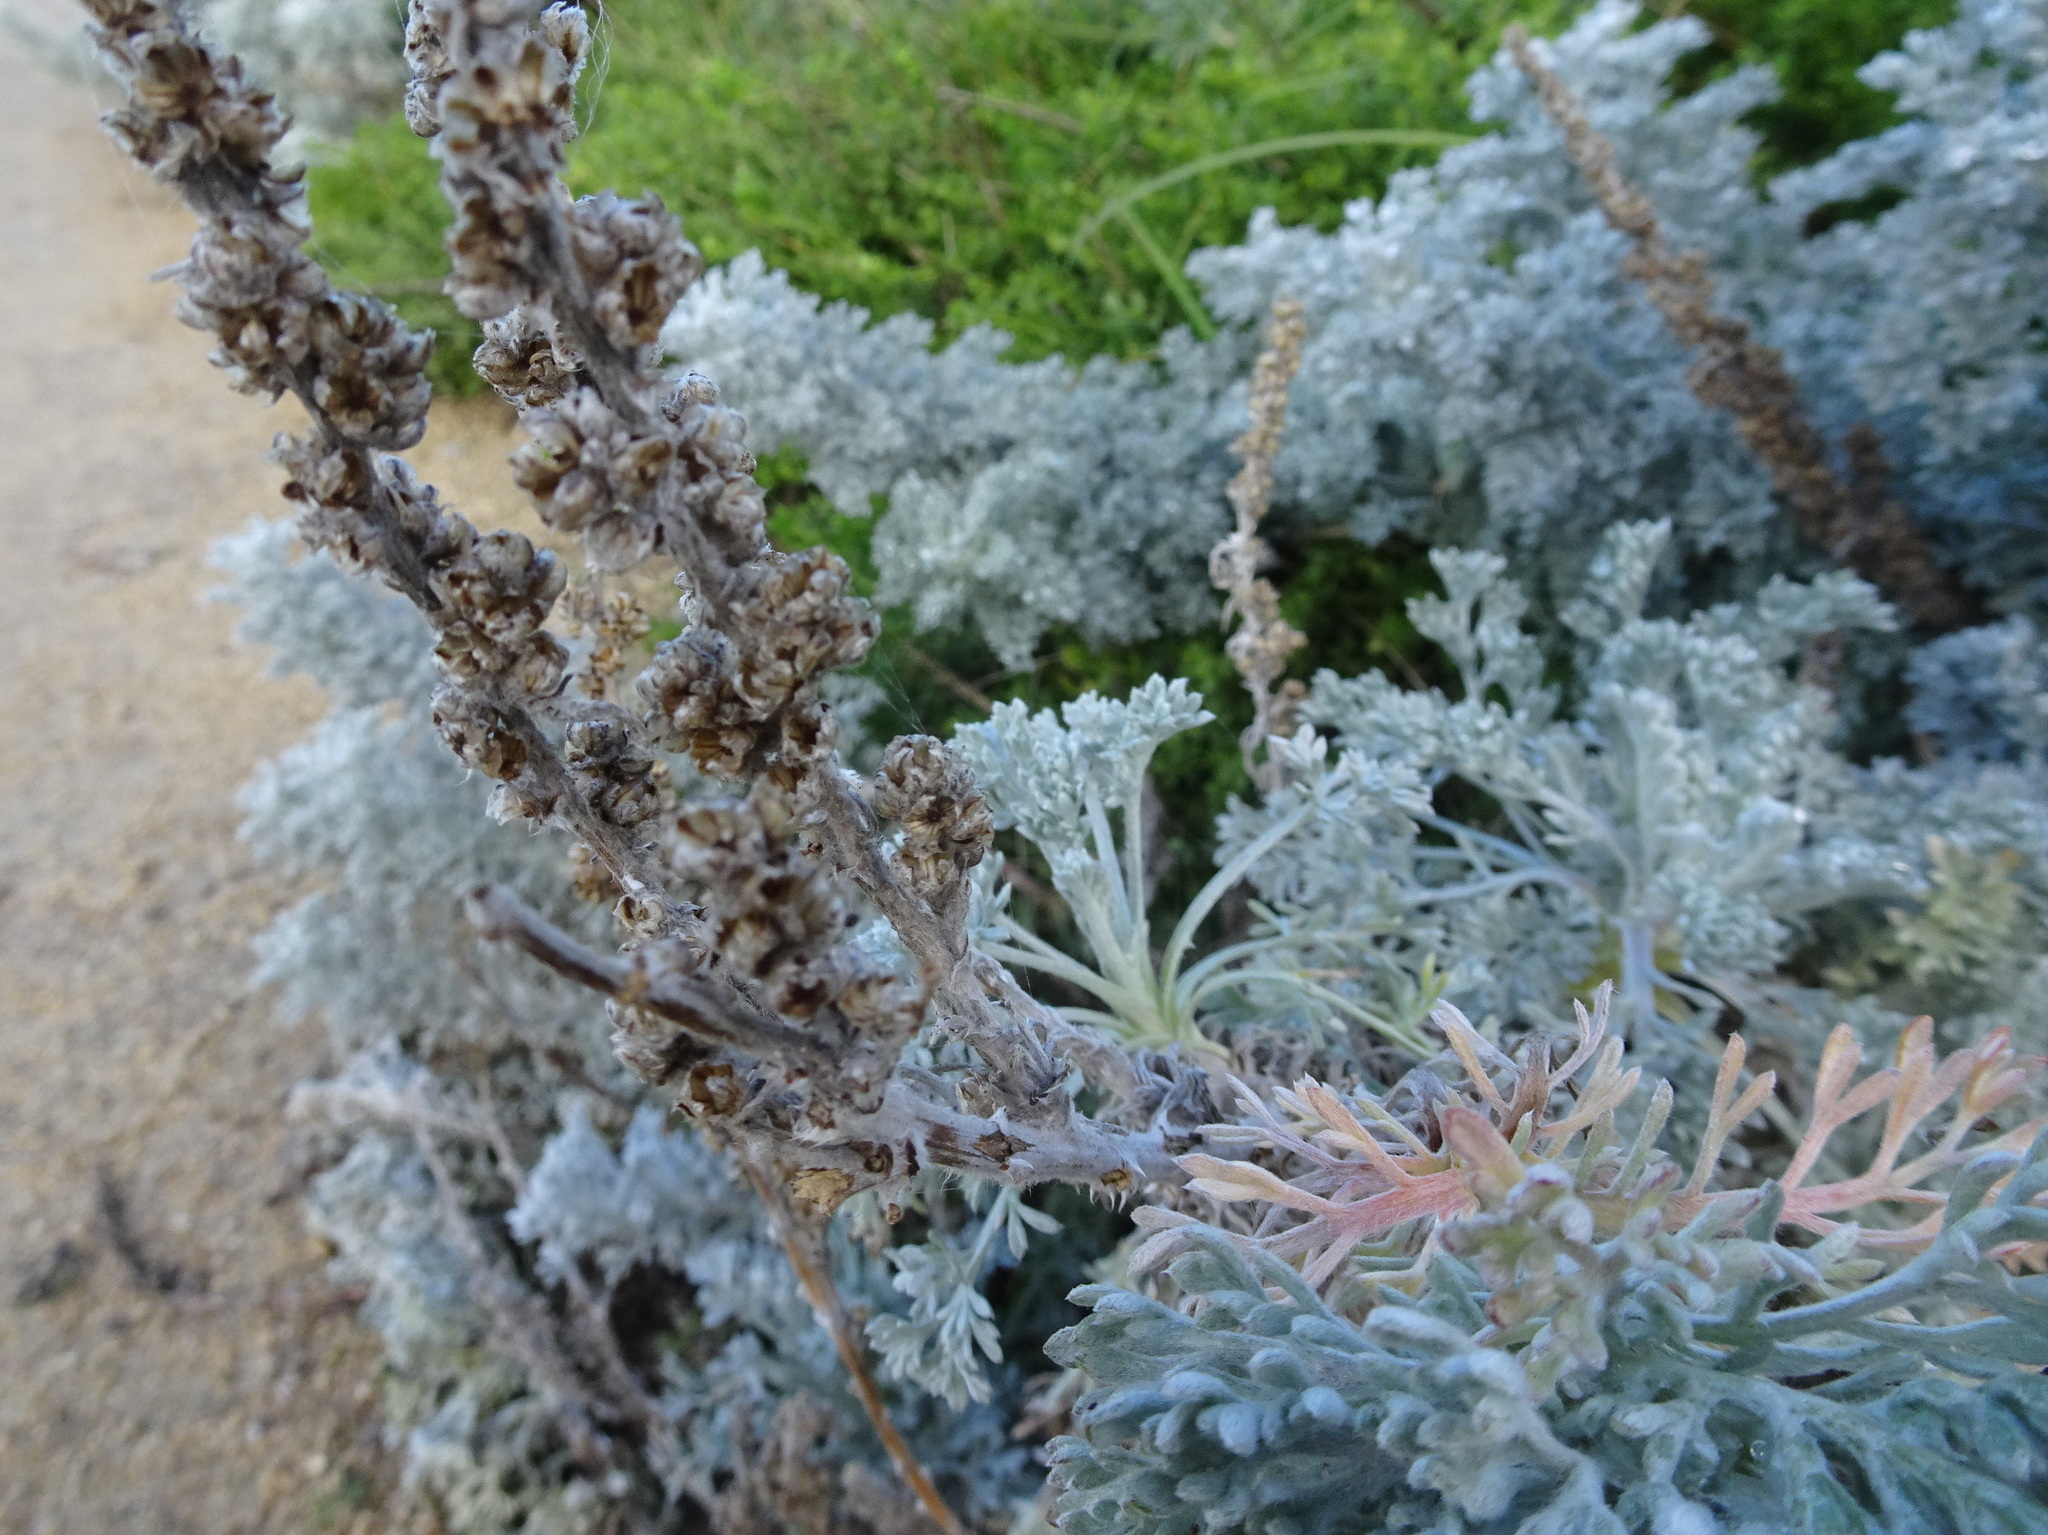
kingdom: Plantae
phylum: Tracheophyta
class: Magnoliopsida
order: Asterales
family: Asteraceae
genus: Artemisia
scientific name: Artemisia pycnocephala
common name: Coastal sagewort
